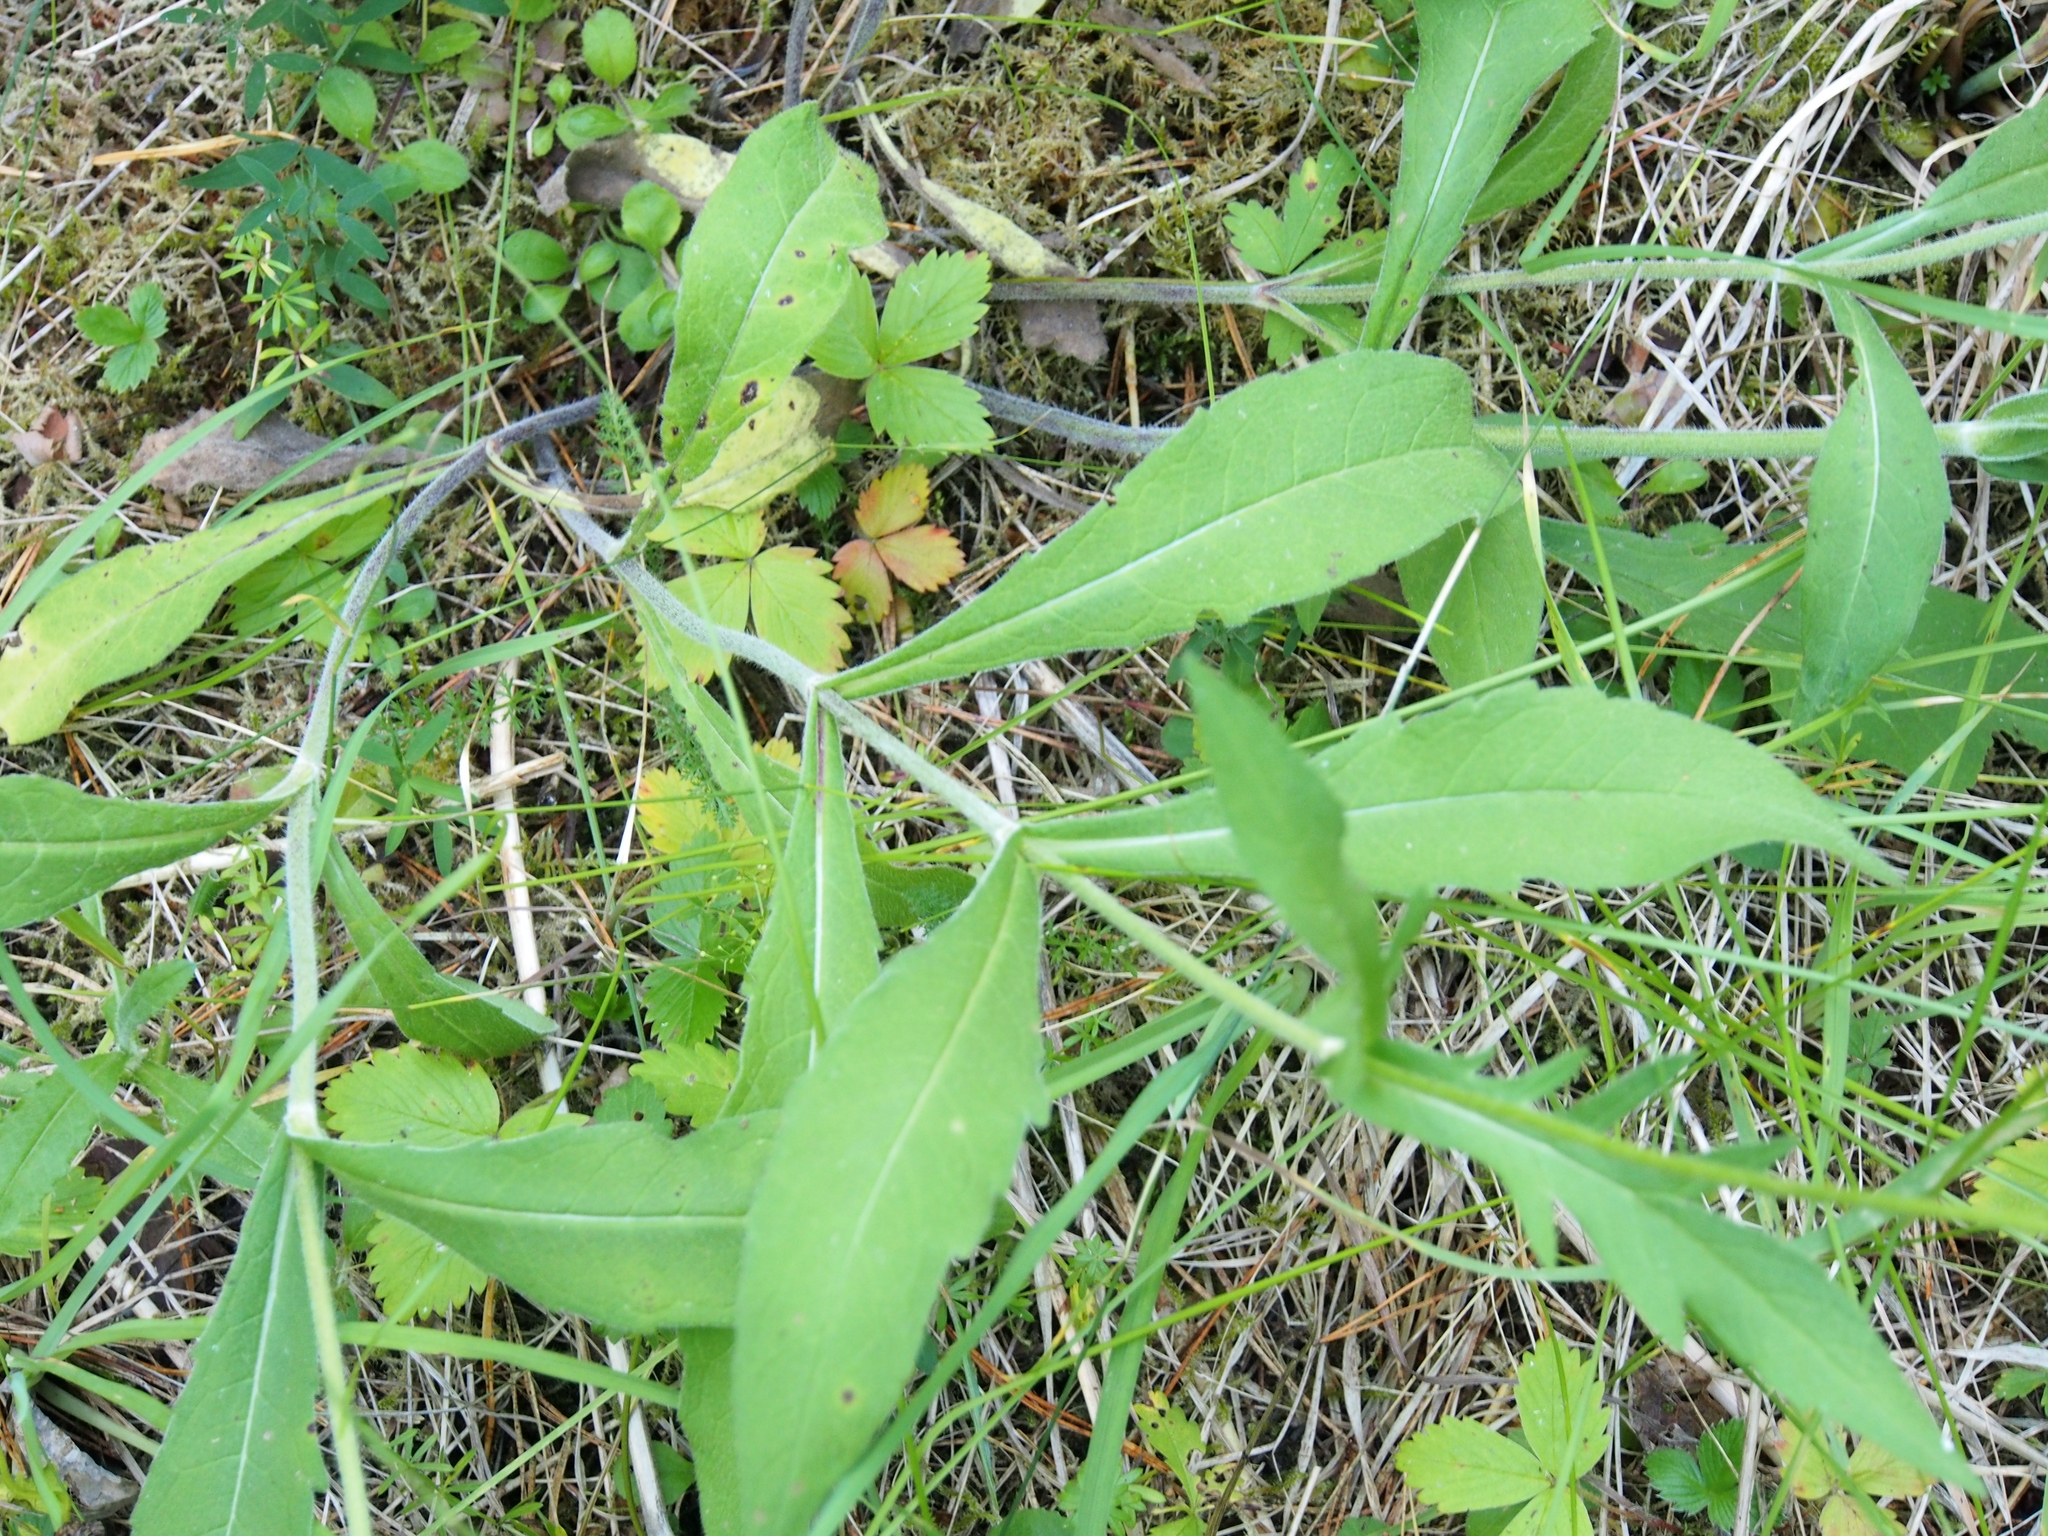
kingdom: Plantae
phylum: Tracheophyta
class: Magnoliopsida
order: Dipsacales
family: Caprifoliaceae
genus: Knautia
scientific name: Knautia arvensis
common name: Field scabiosa
